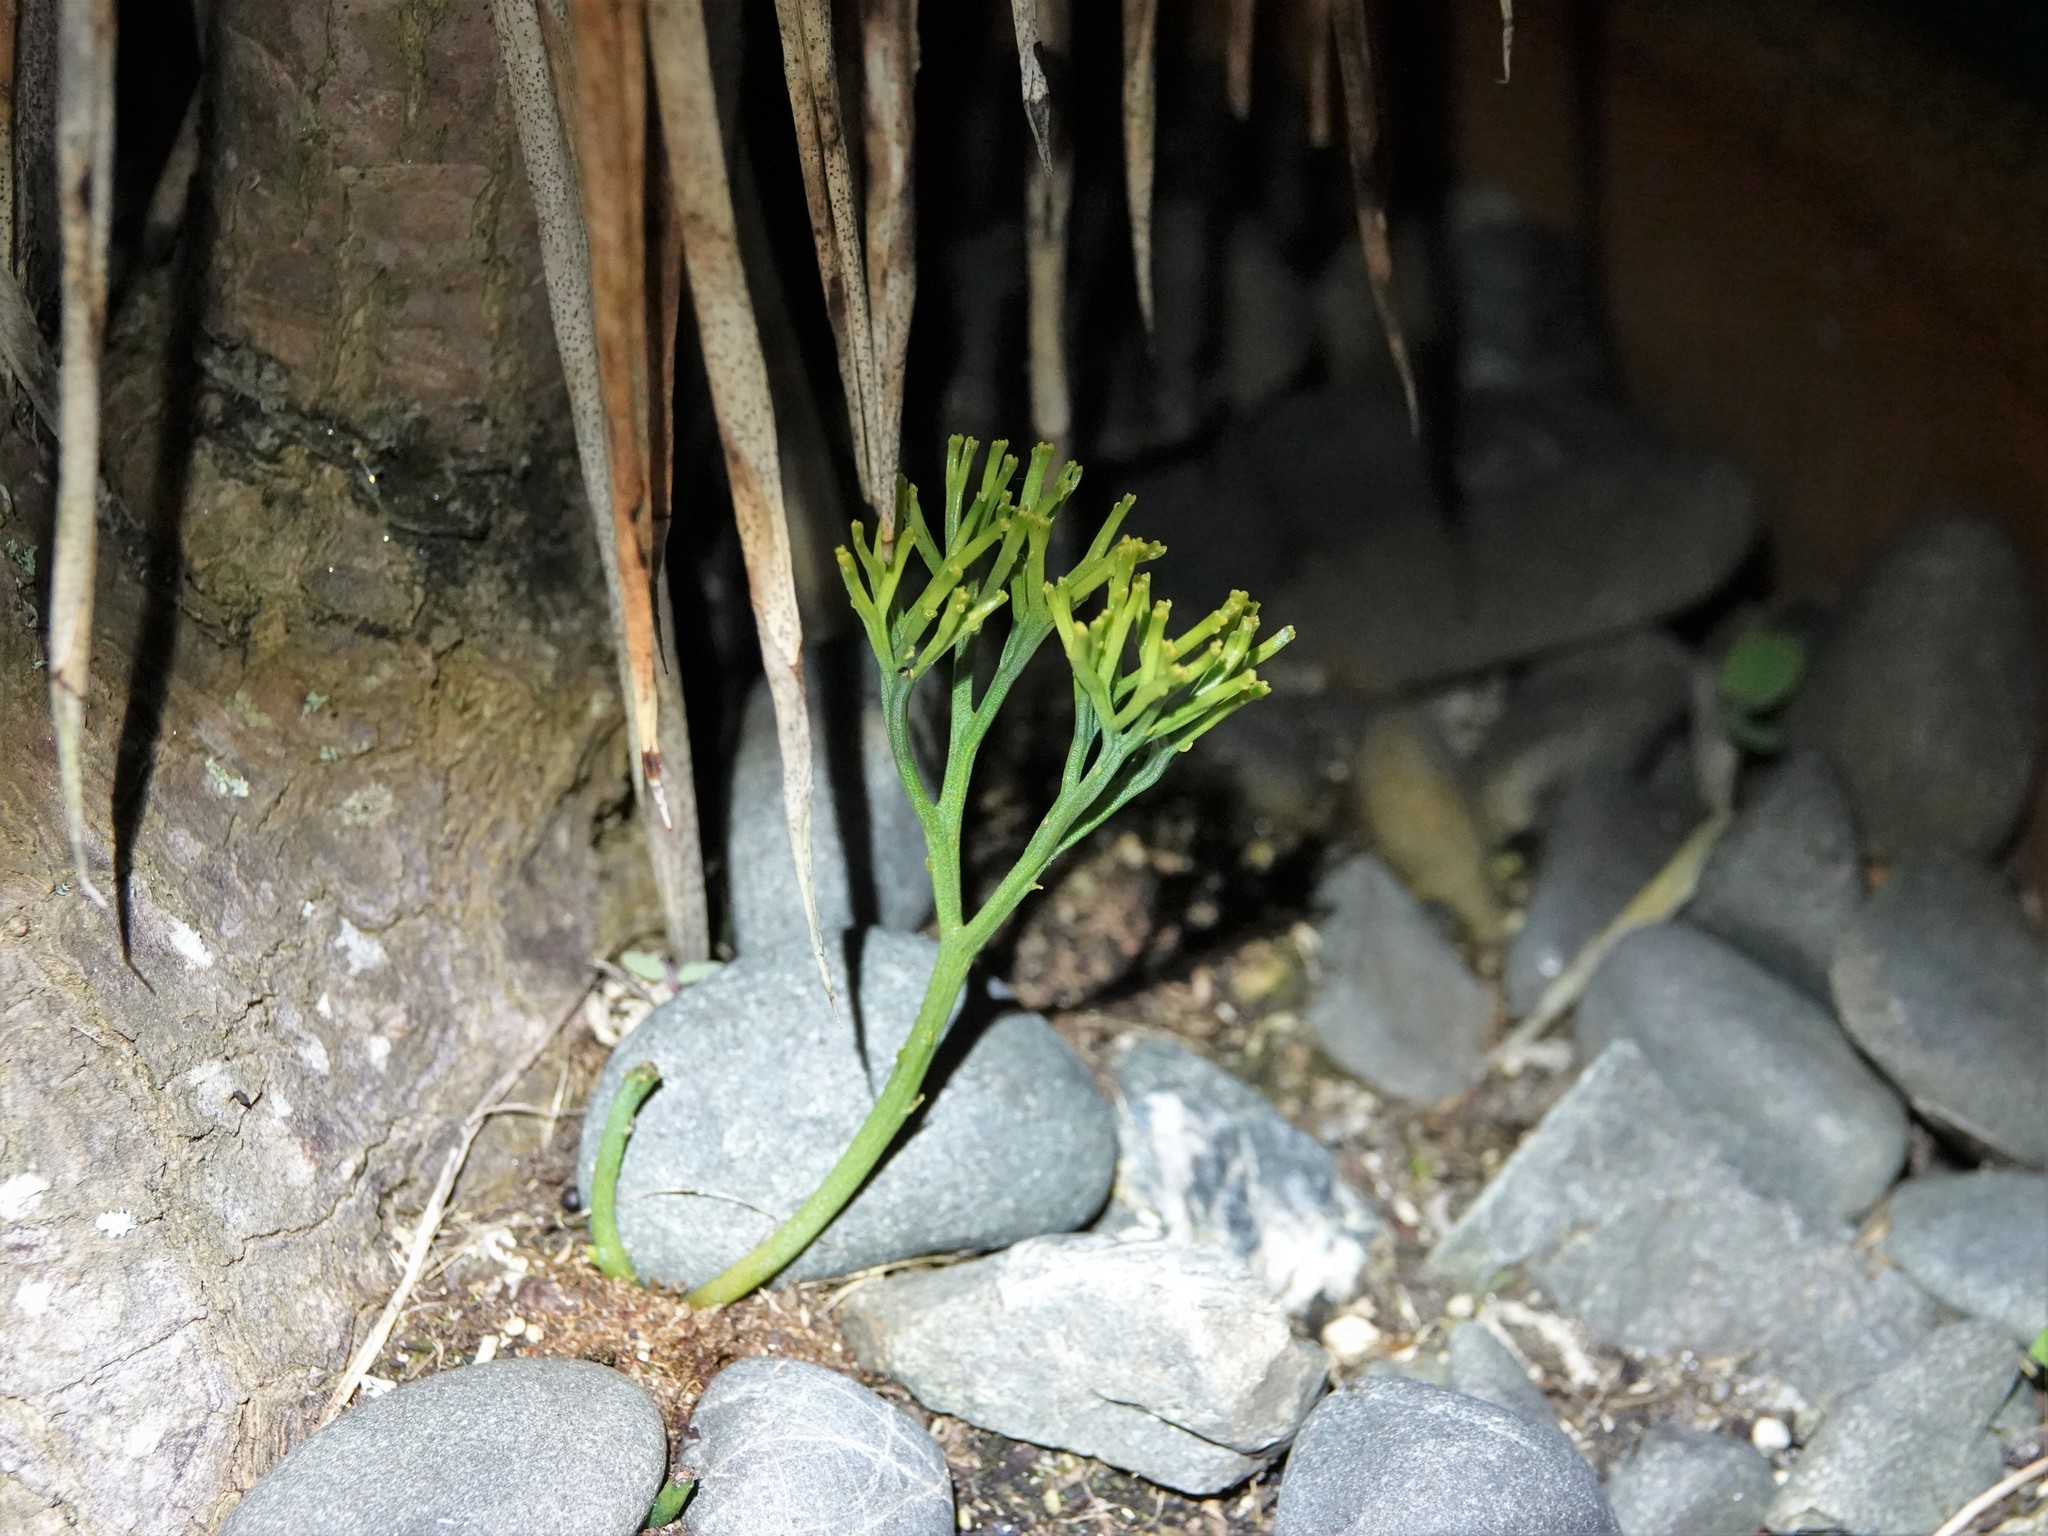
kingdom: Plantae
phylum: Tracheophyta
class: Polypodiopsida
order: Psilotales
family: Psilotaceae
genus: Psilotum
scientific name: Psilotum nudum
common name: Skeleton fork fern
